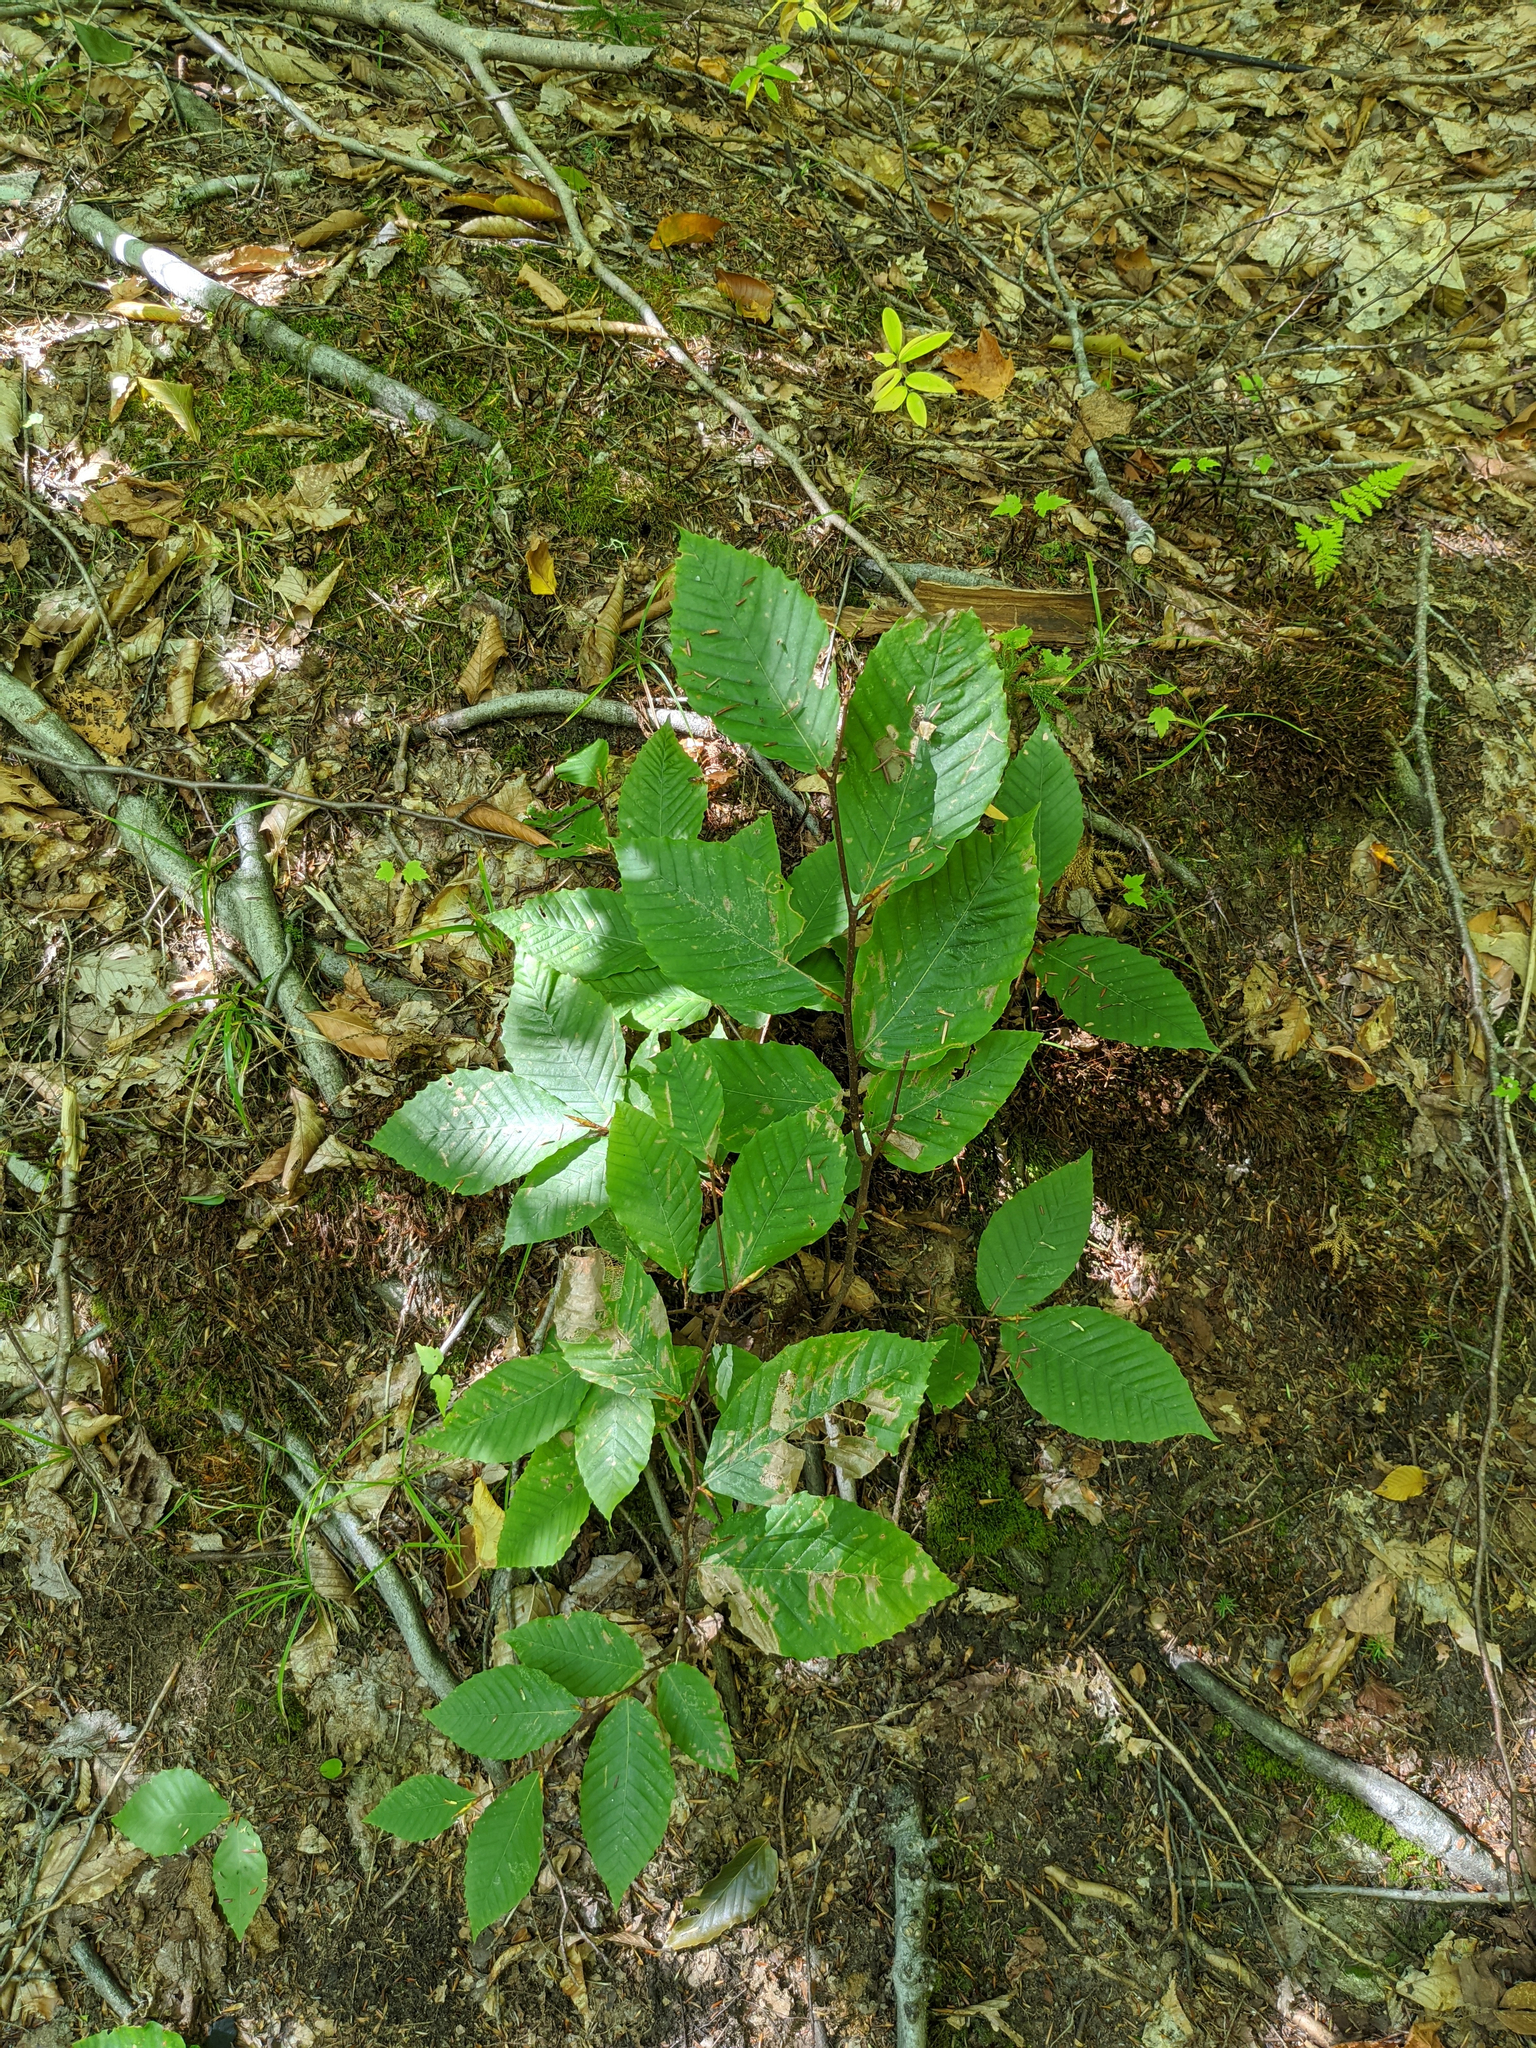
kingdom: Plantae
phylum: Tracheophyta
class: Magnoliopsida
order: Fagales
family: Fagaceae
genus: Fagus
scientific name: Fagus grandifolia
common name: American beech
